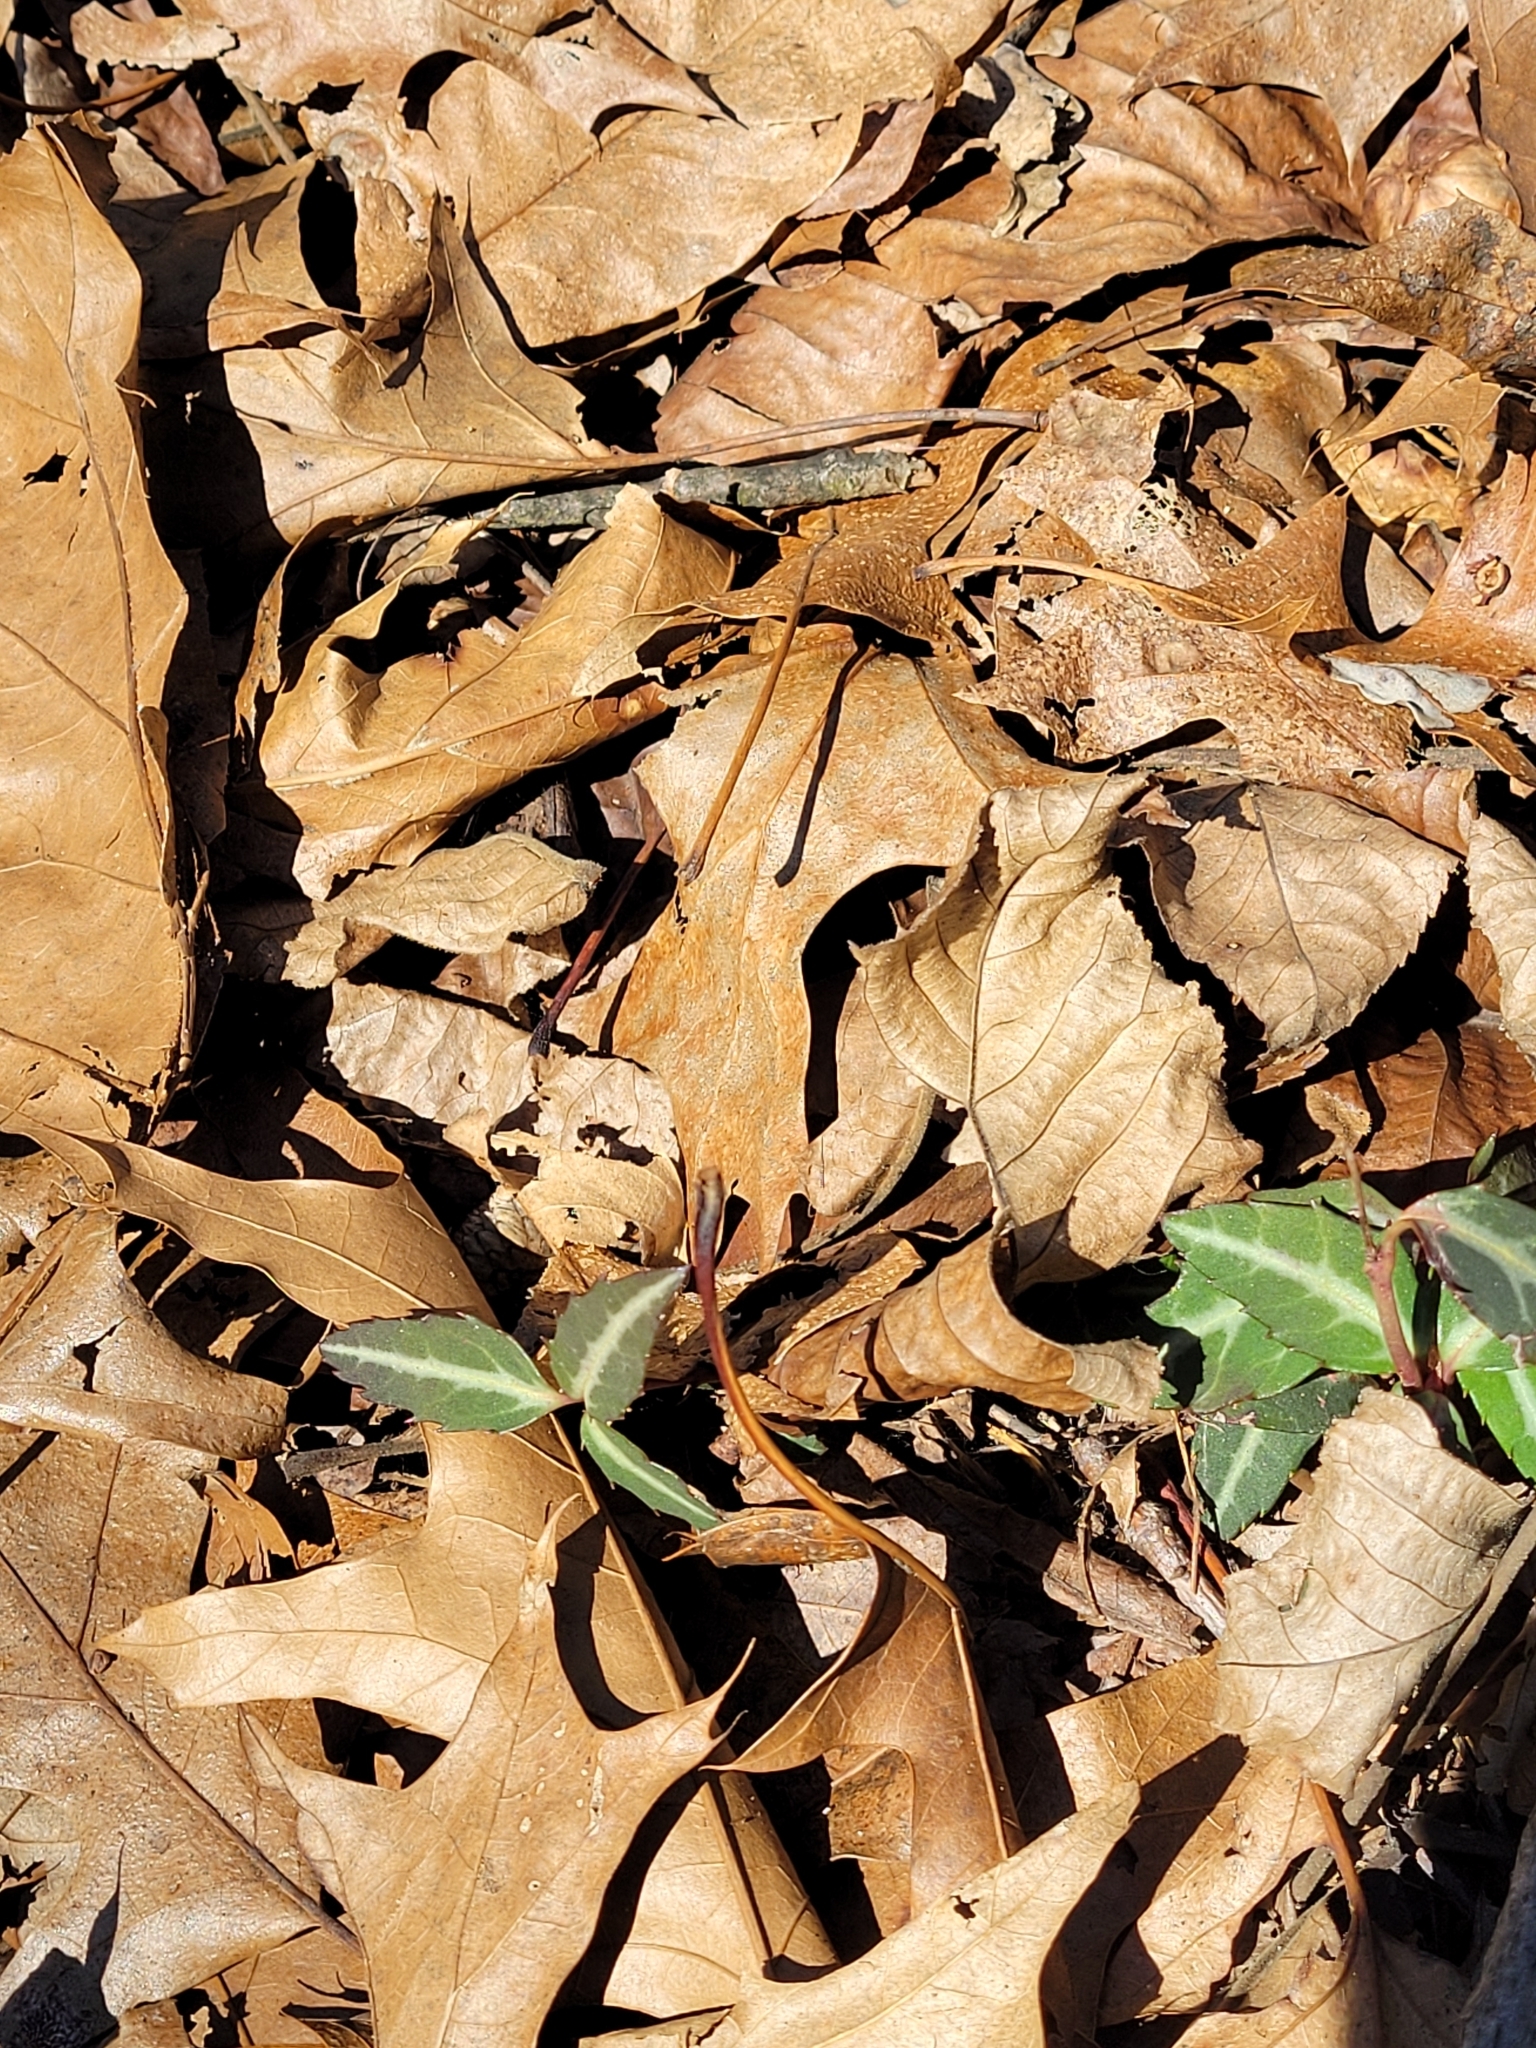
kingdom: Plantae
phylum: Tracheophyta
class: Magnoliopsida
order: Ericales
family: Ericaceae
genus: Chimaphila
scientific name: Chimaphila maculata
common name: Spotted pipsissewa
